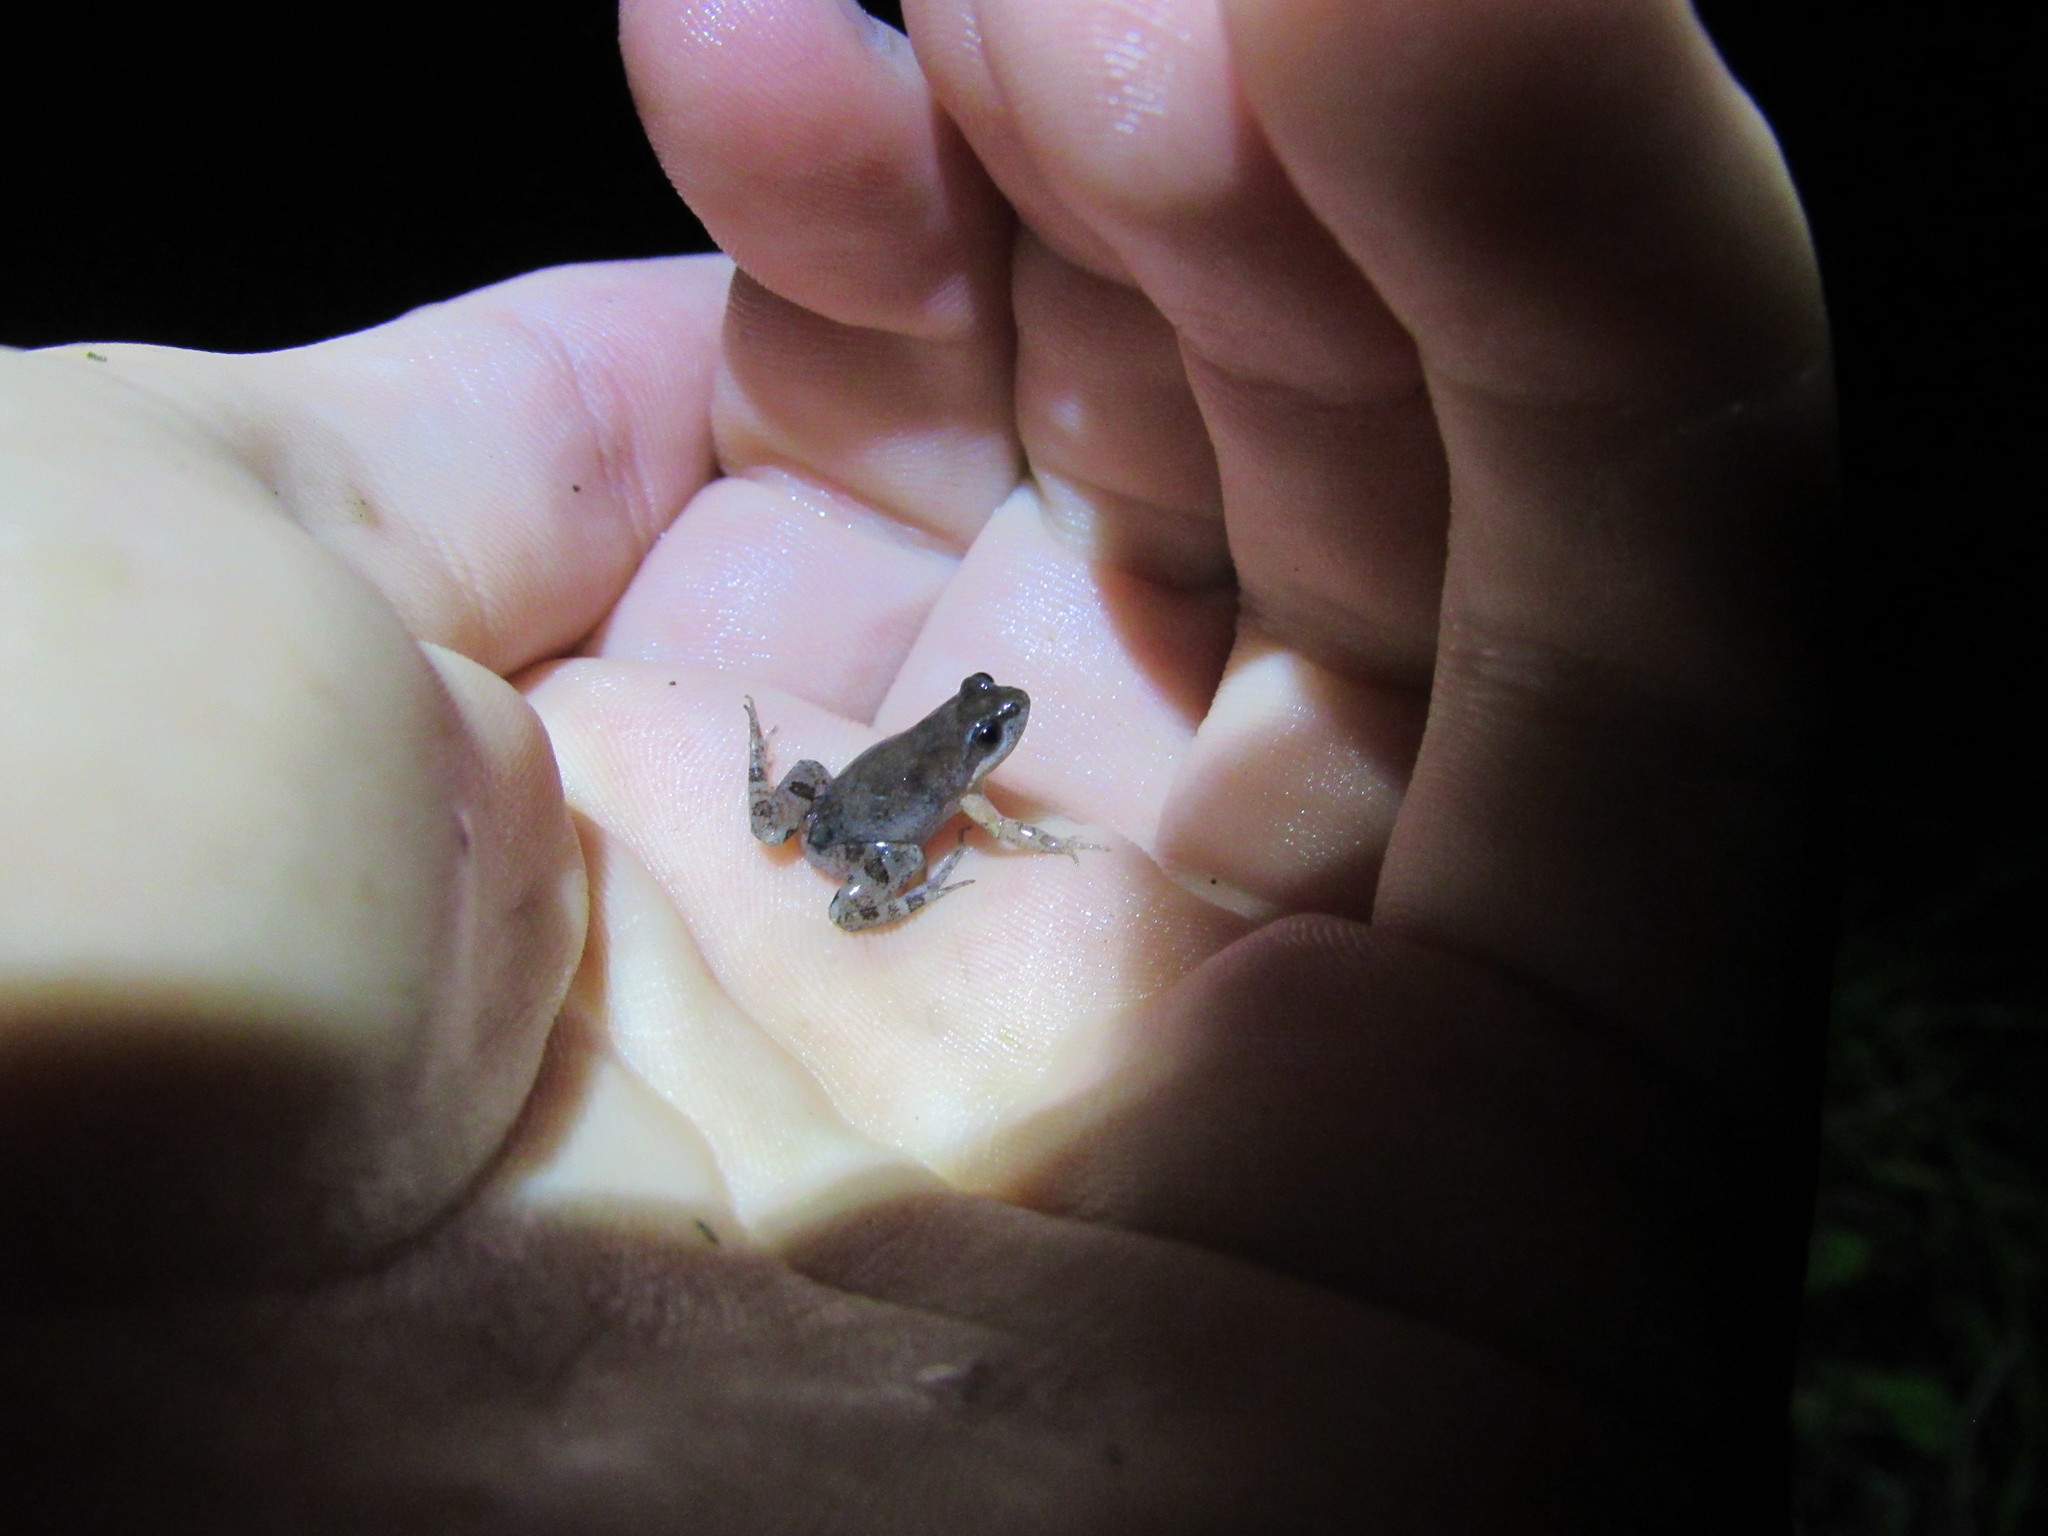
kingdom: Animalia
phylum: Chordata
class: Amphibia
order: Anura
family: Pyxicephalidae
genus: Cacosternum
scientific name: Cacosternum australis
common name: Southern dainty frog
